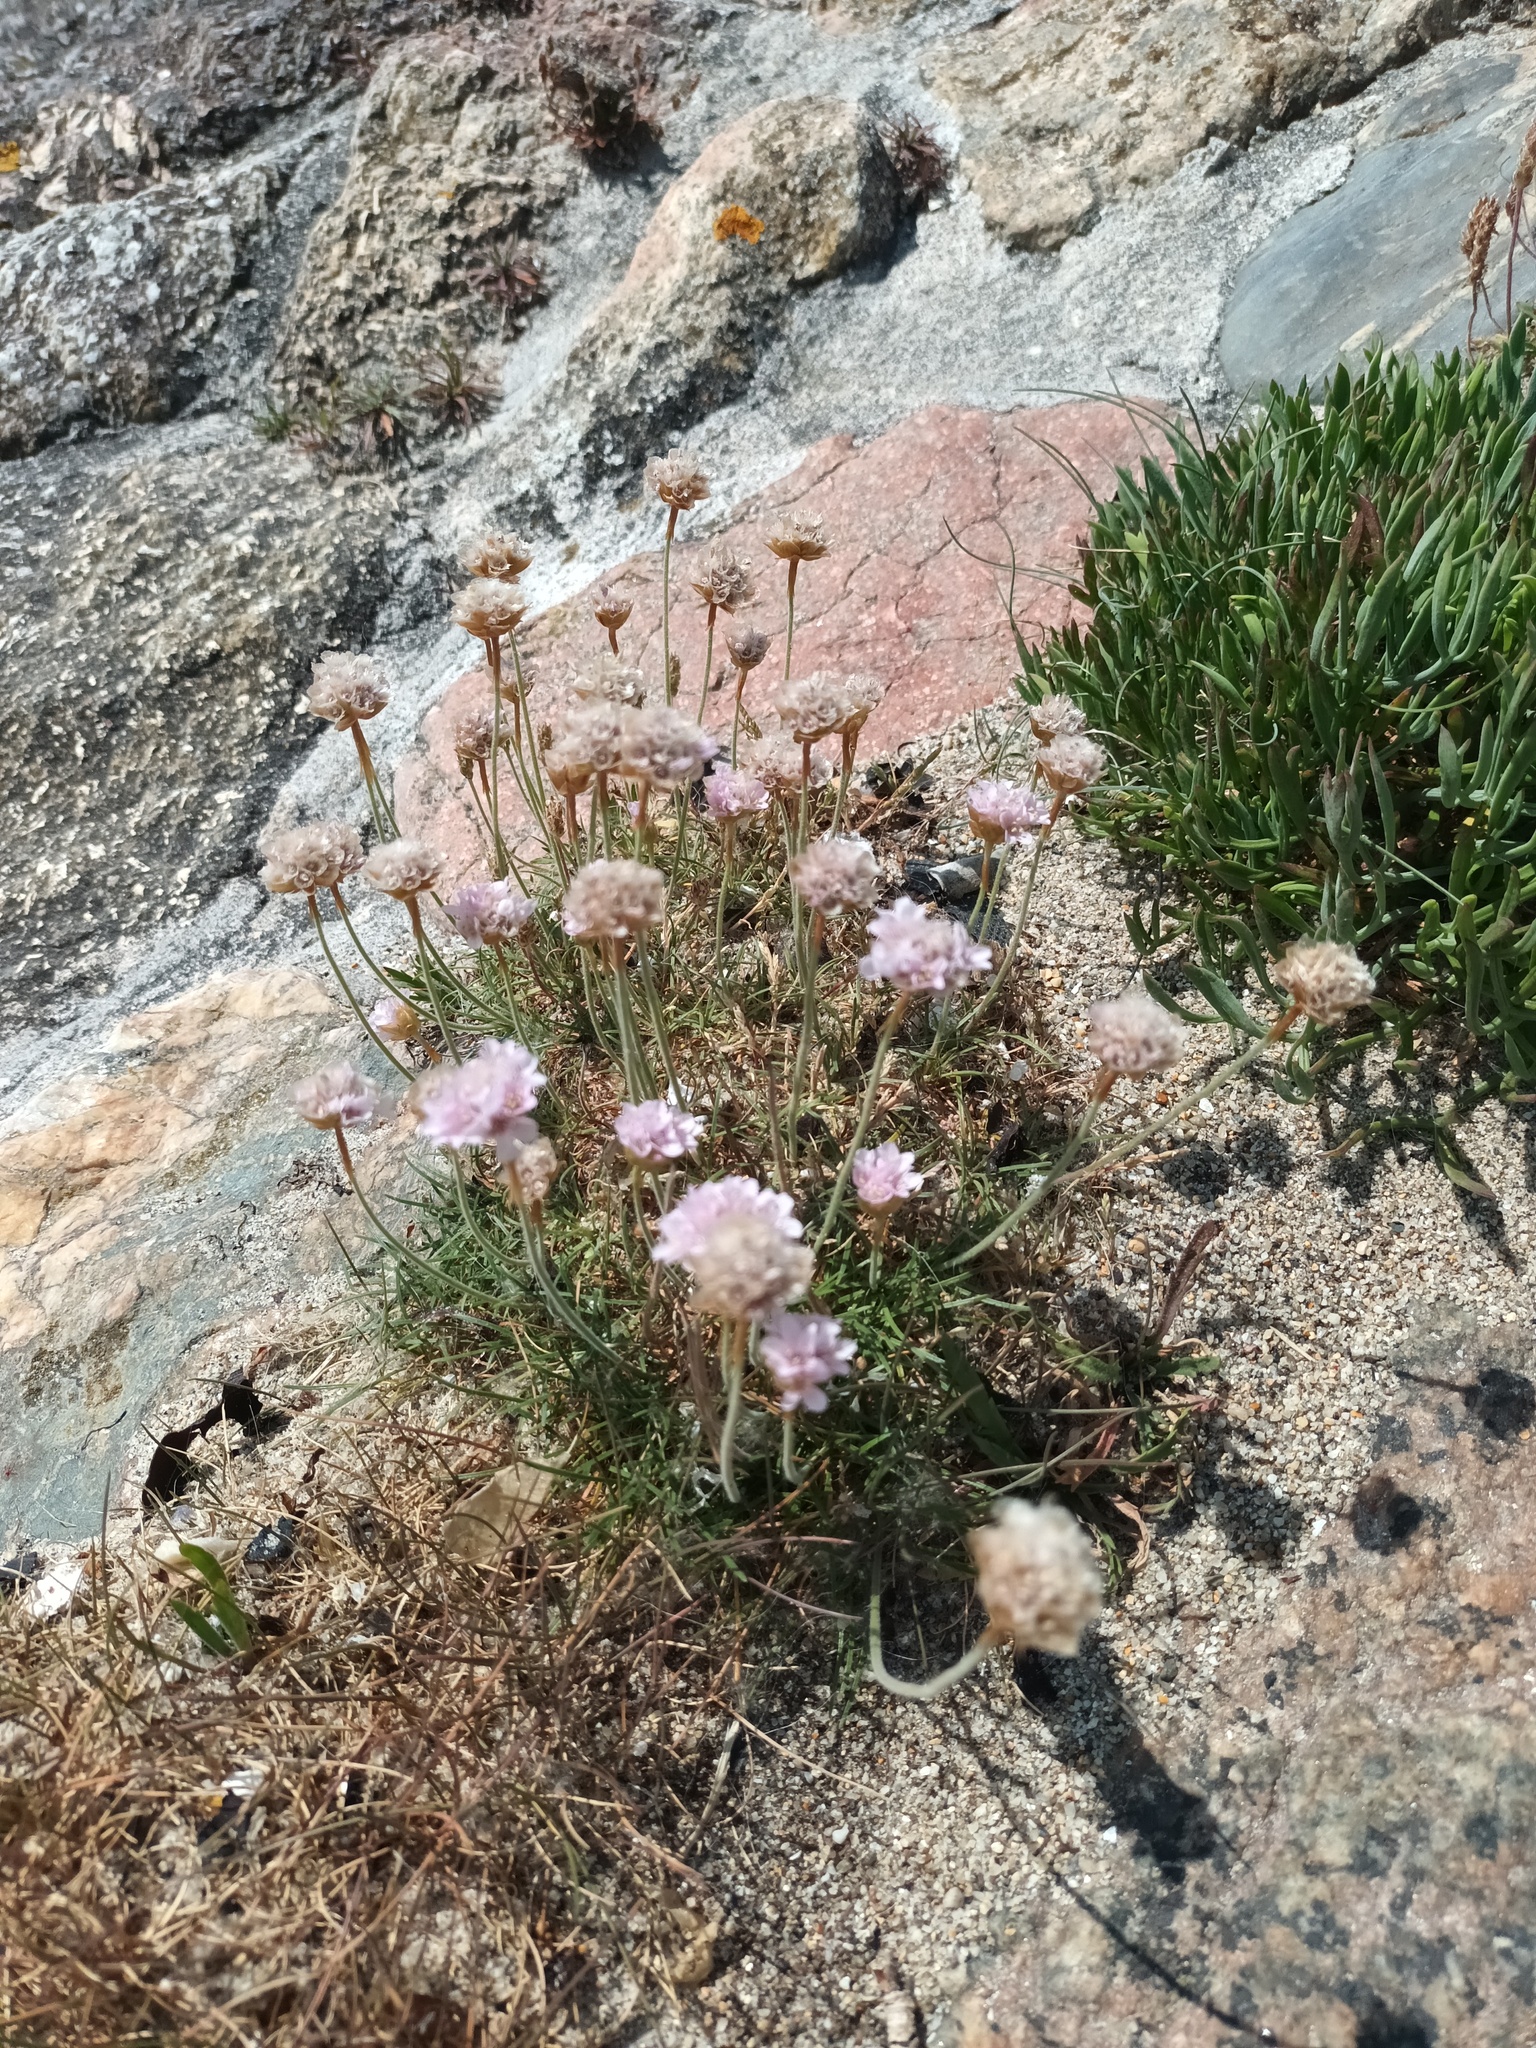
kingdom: Plantae
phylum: Tracheophyta
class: Magnoliopsida
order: Caryophyllales
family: Plumbaginaceae
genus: Armeria
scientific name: Armeria maritima
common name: Thrift
